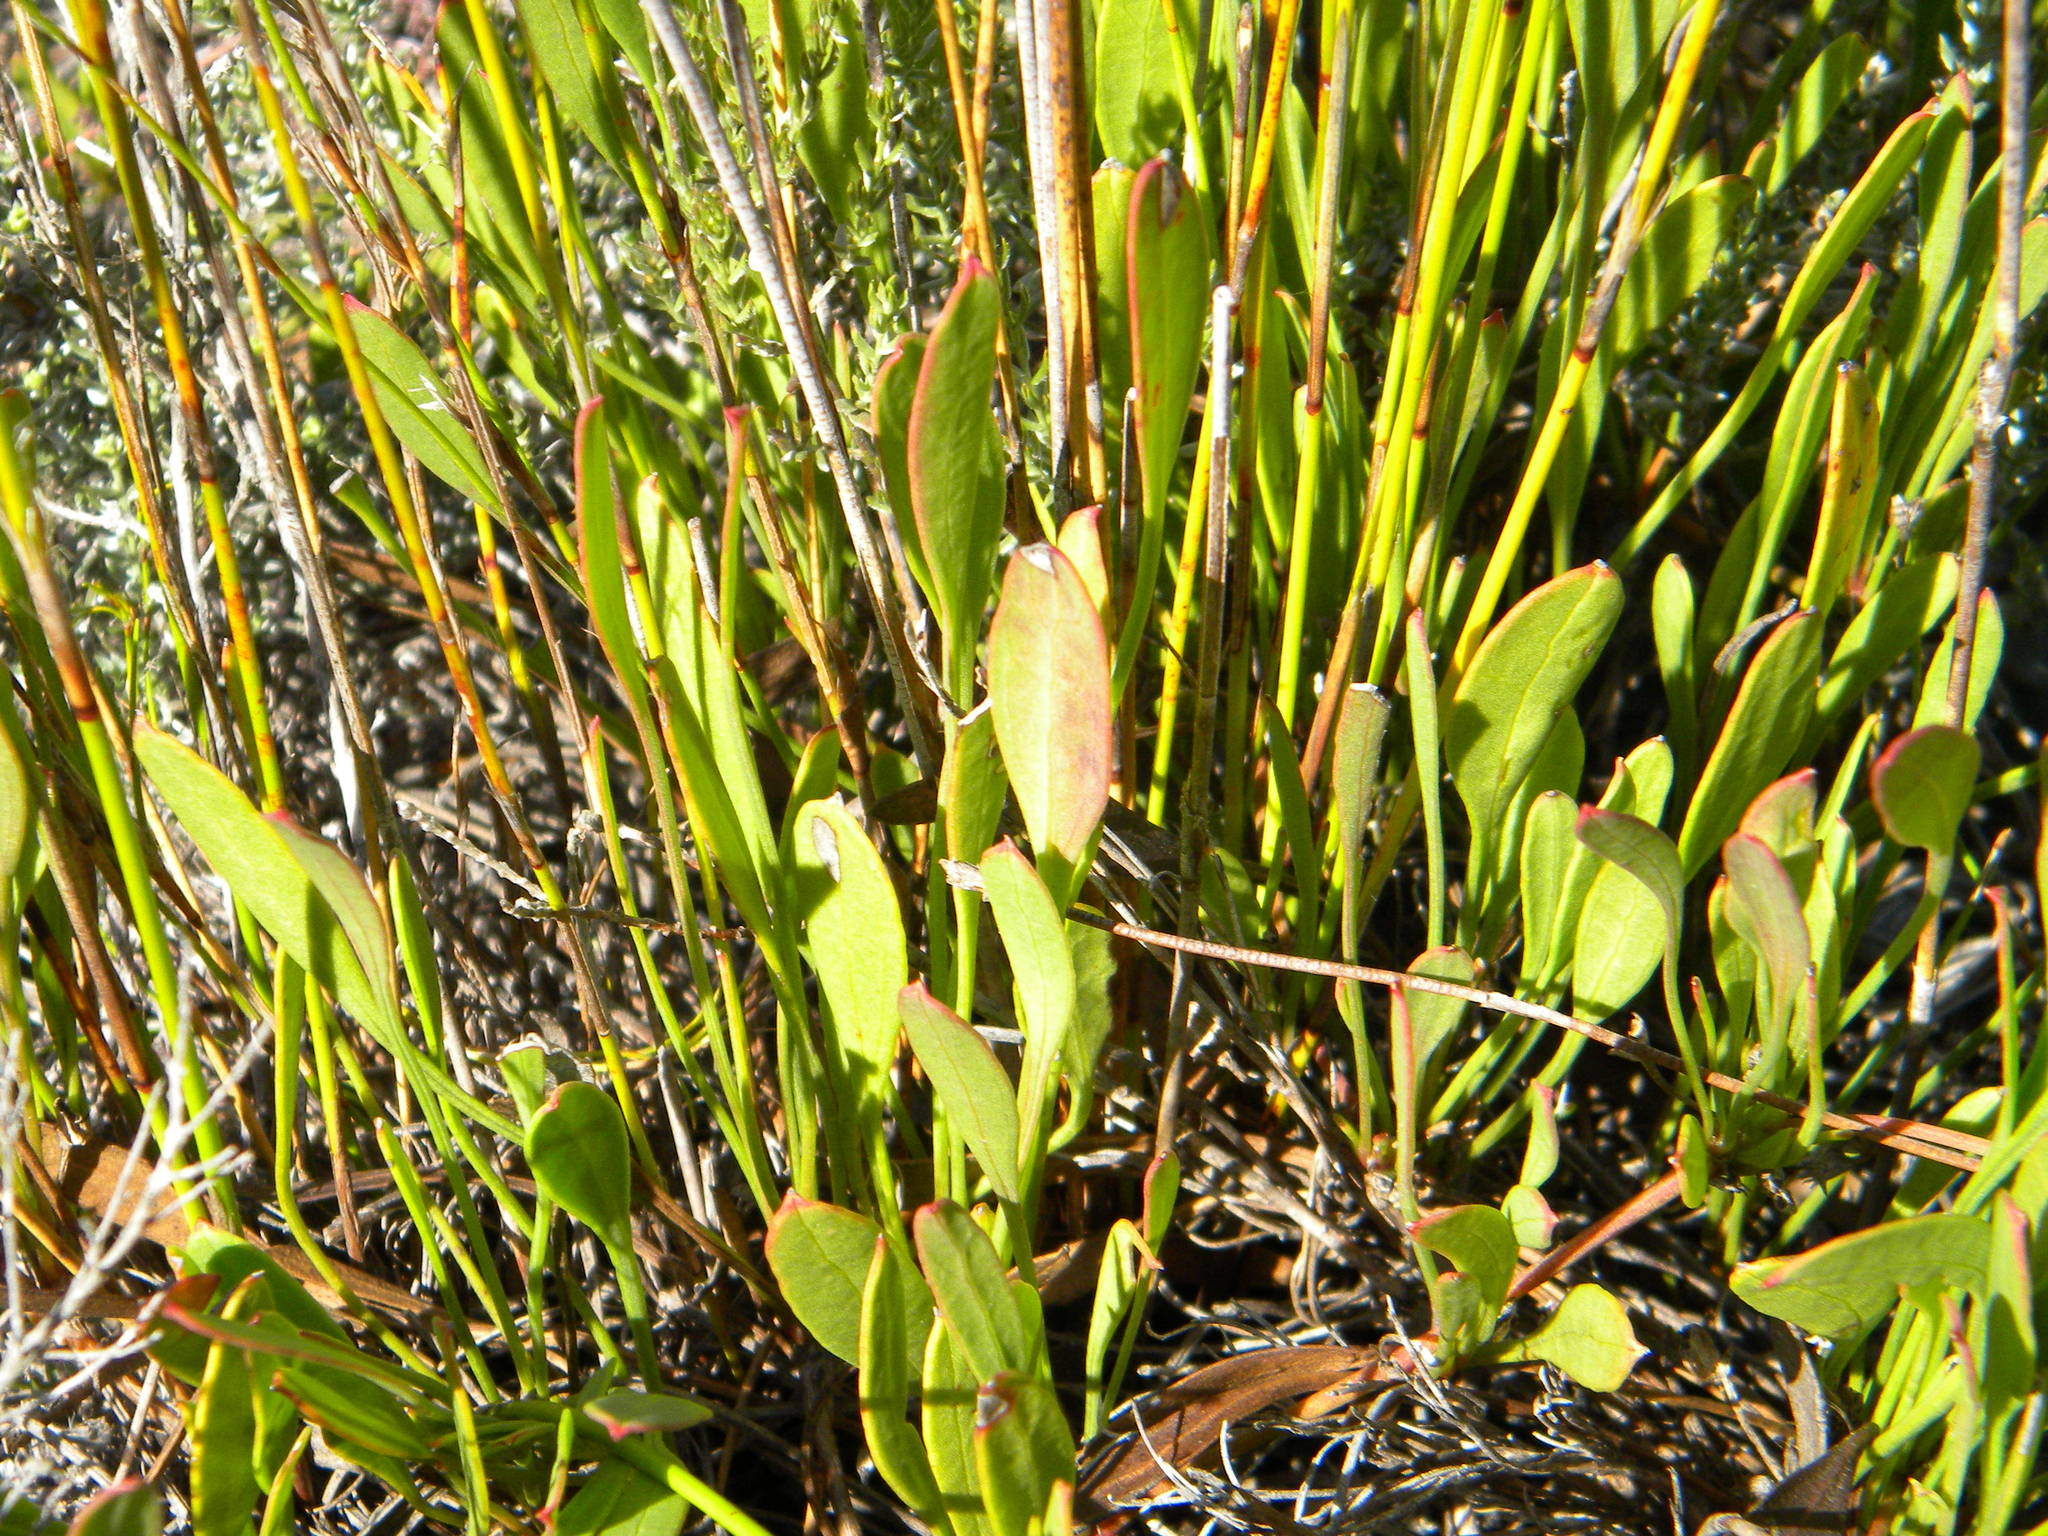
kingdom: Plantae
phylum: Tracheophyta
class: Magnoliopsida
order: Apiales
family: Apiaceae
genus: Centella
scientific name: Centella glabrata
